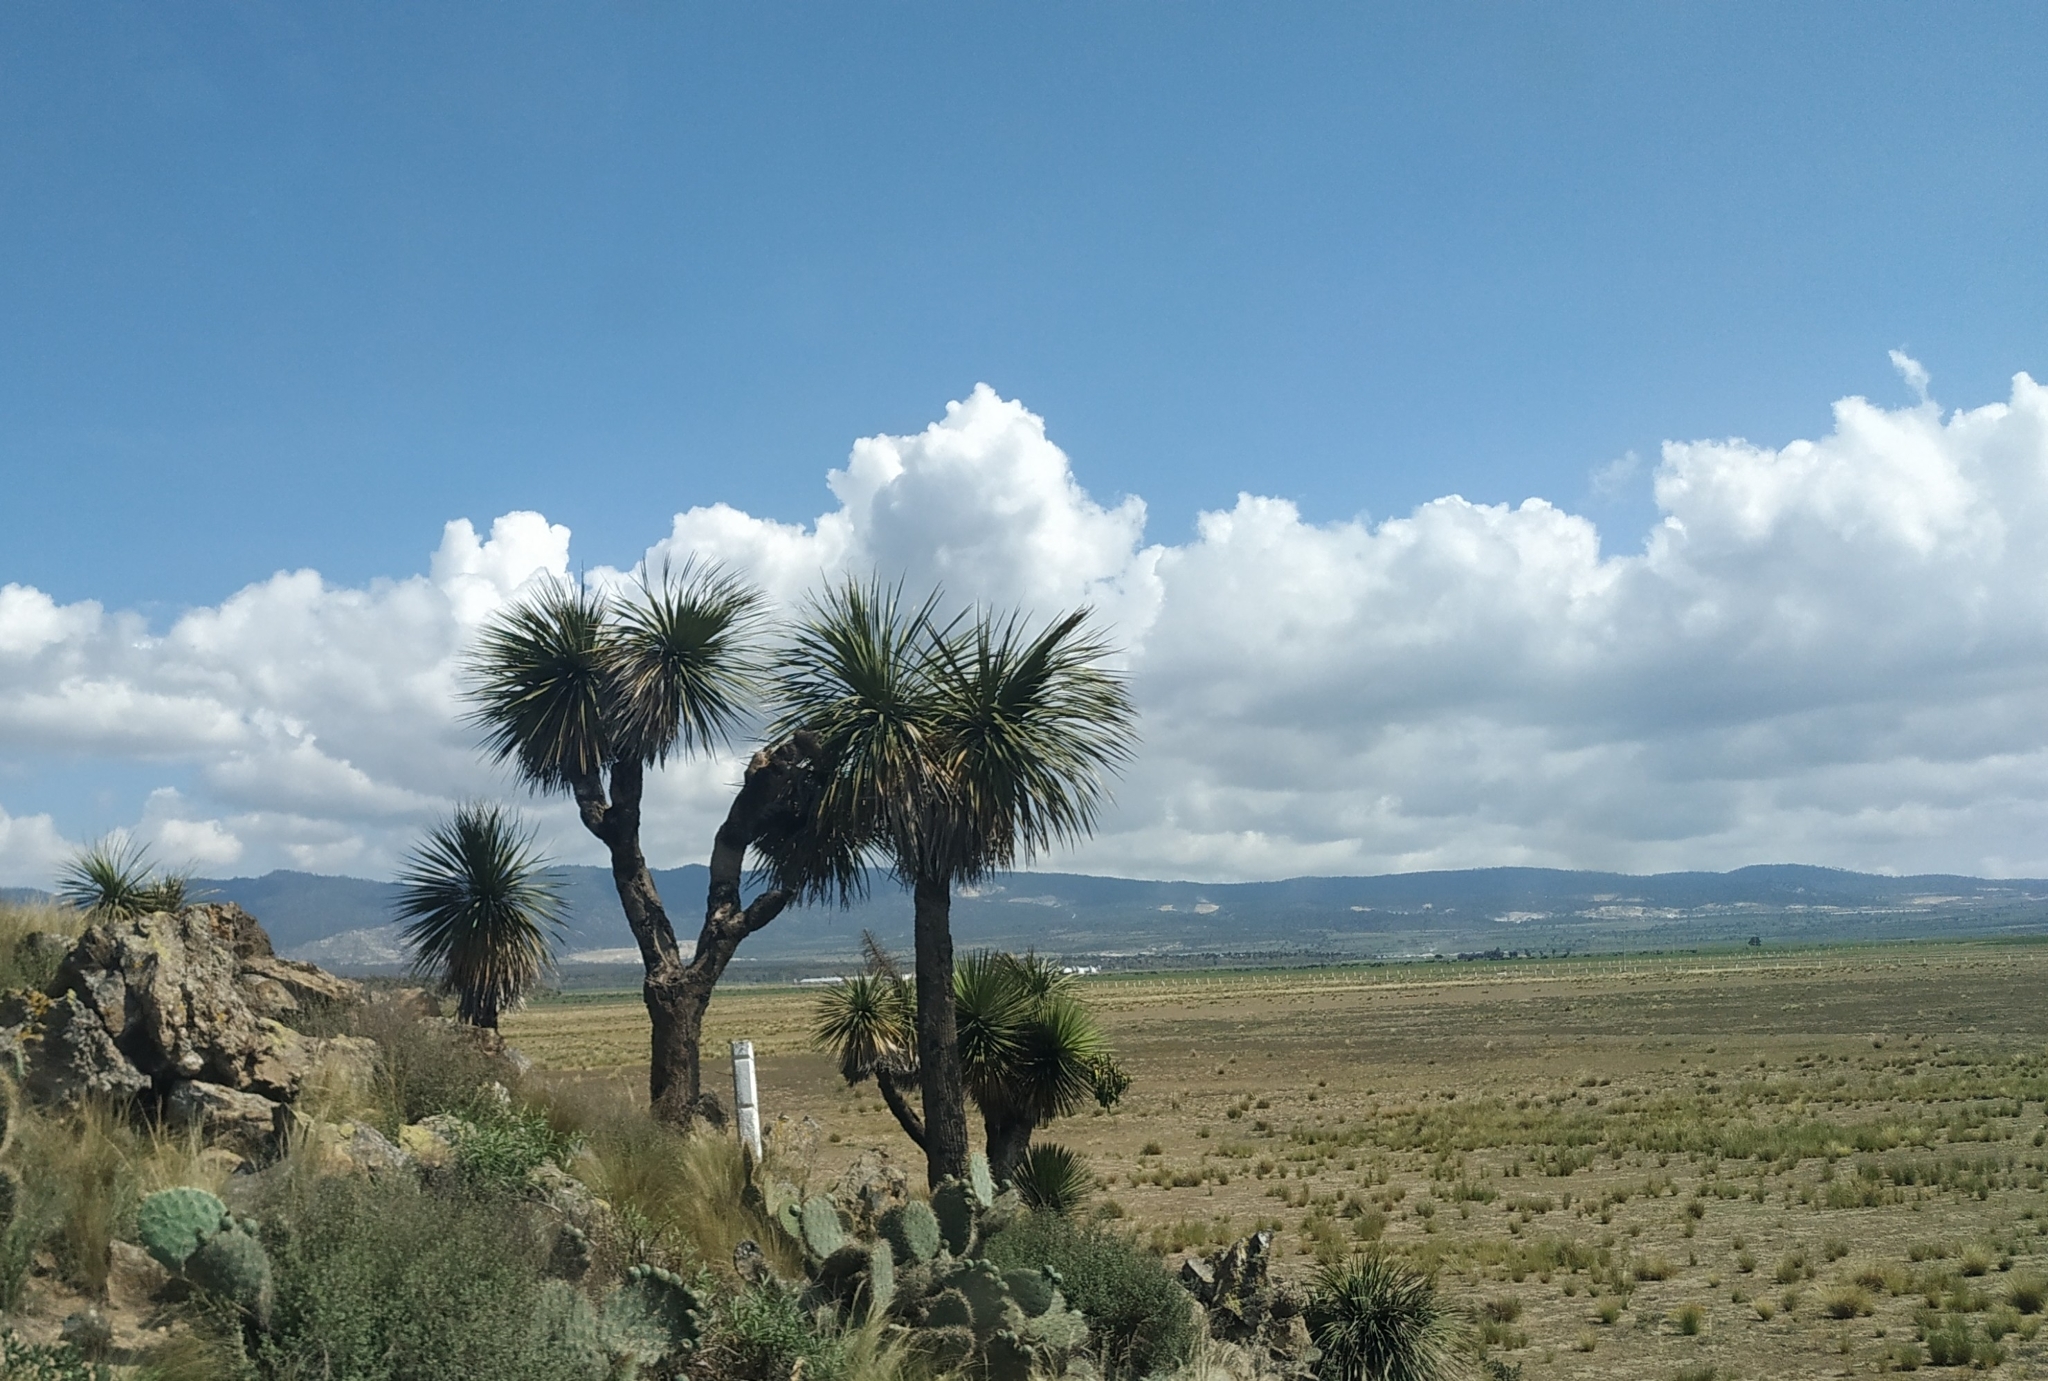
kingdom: Plantae
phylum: Tracheophyta
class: Liliopsida
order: Asparagales
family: Asparagaceae
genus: Nolina
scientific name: Nolina parviflora
